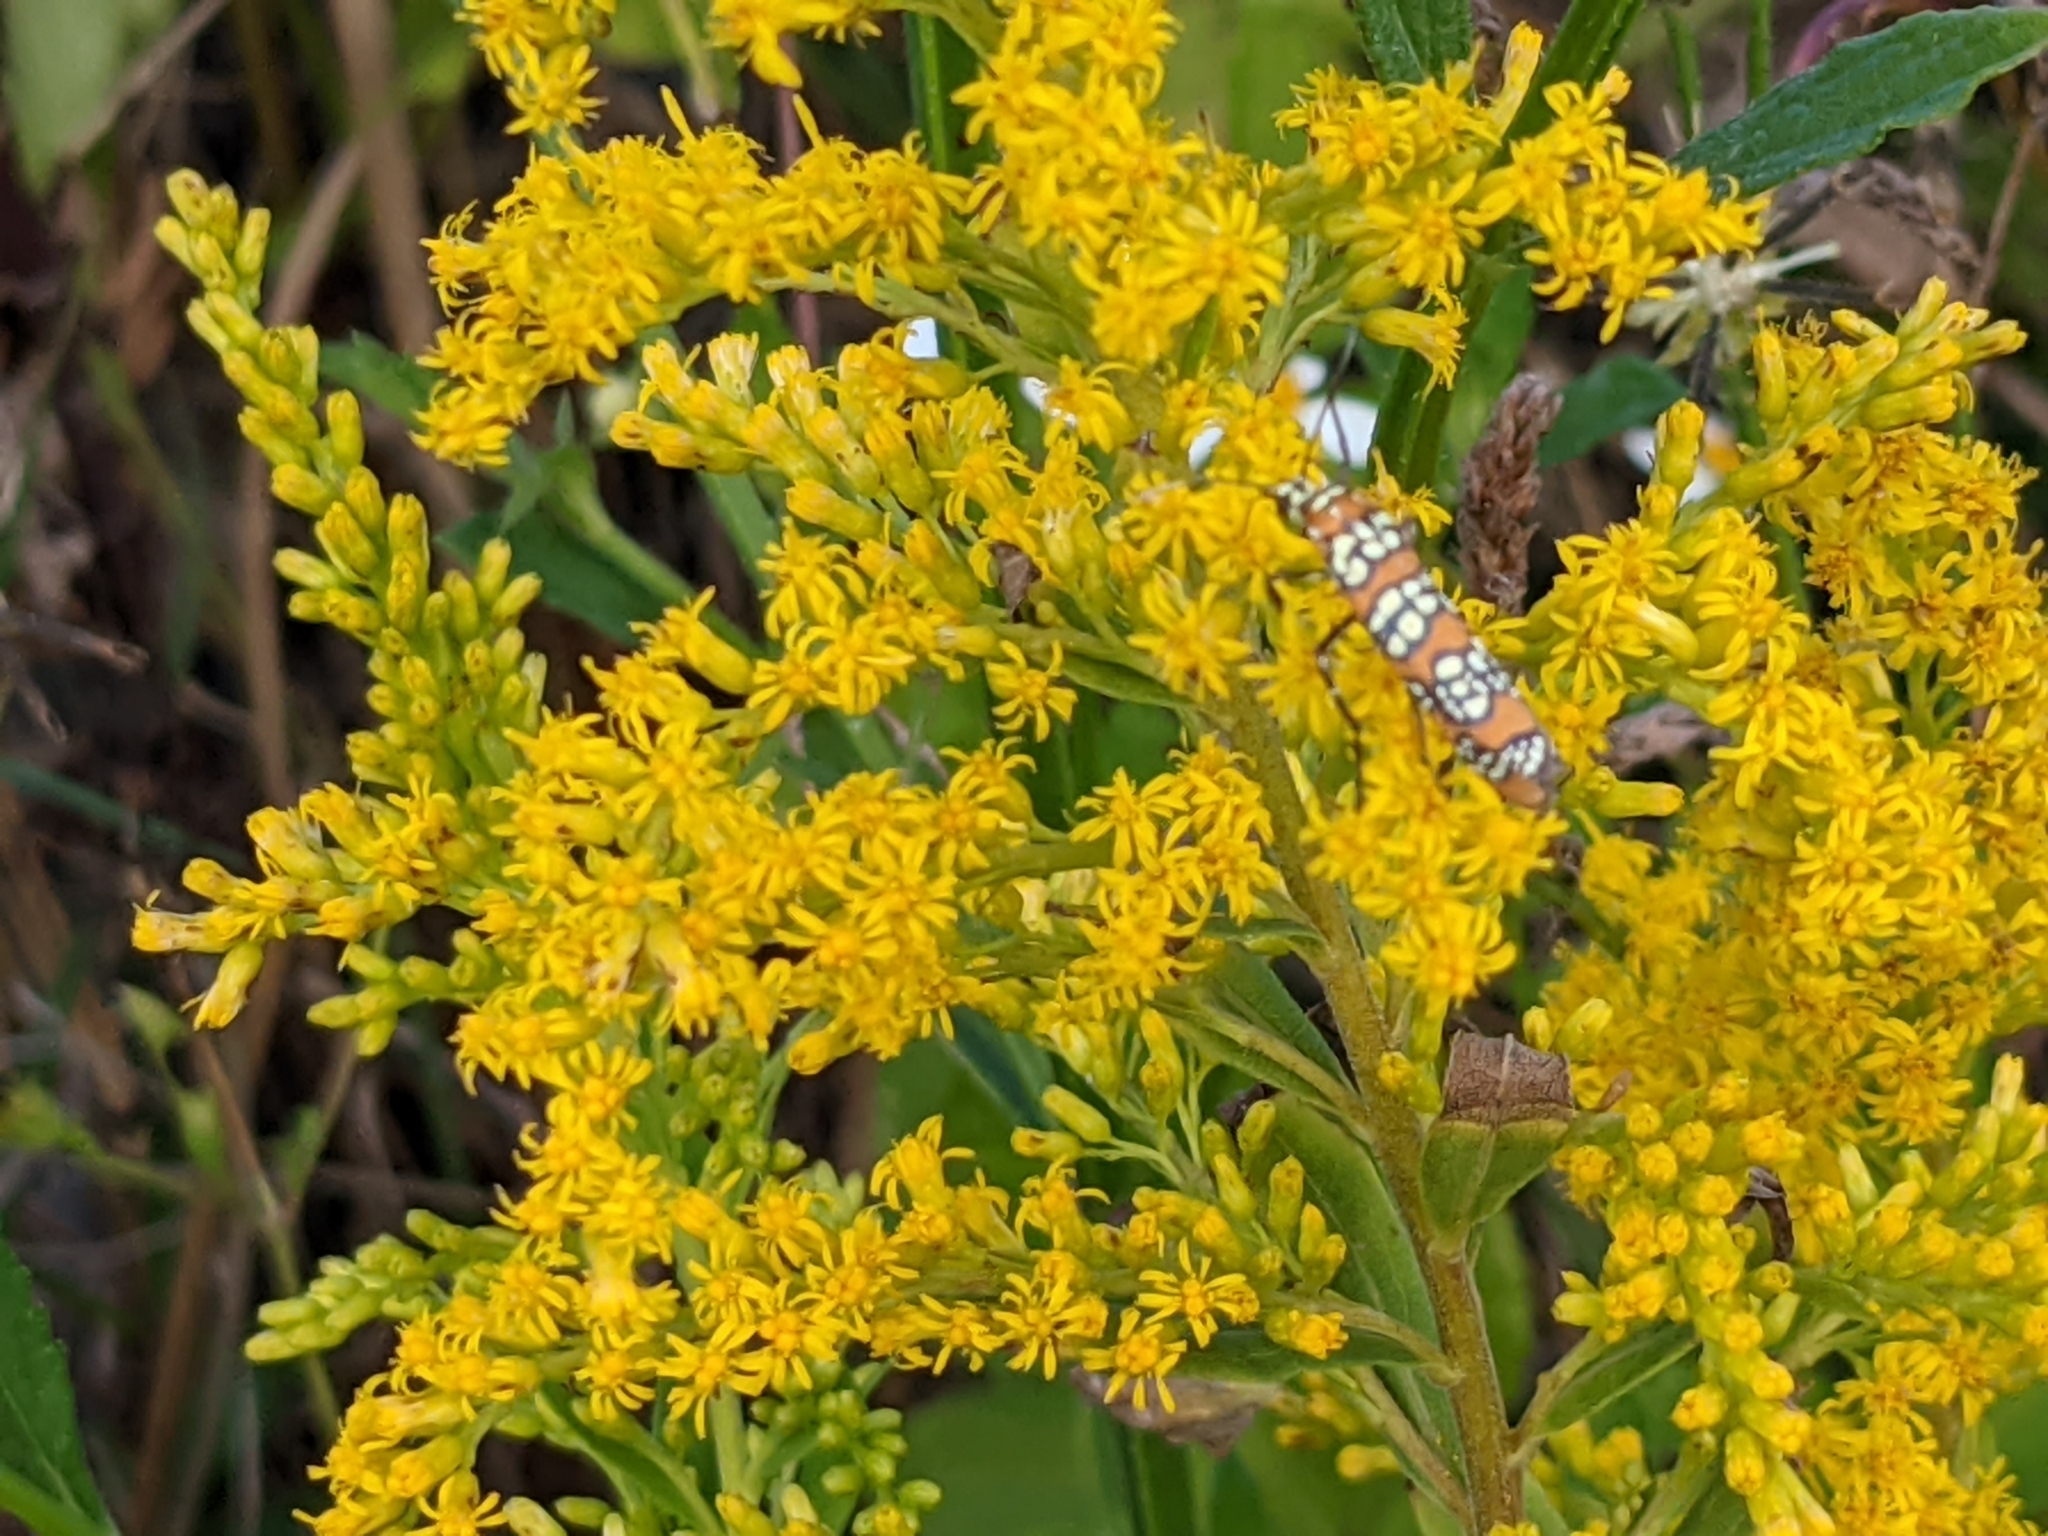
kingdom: Animalia
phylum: Arthropoda
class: Insecta
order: Lepidoptera
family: Attevidae
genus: Atteva
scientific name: Atteva punctella
